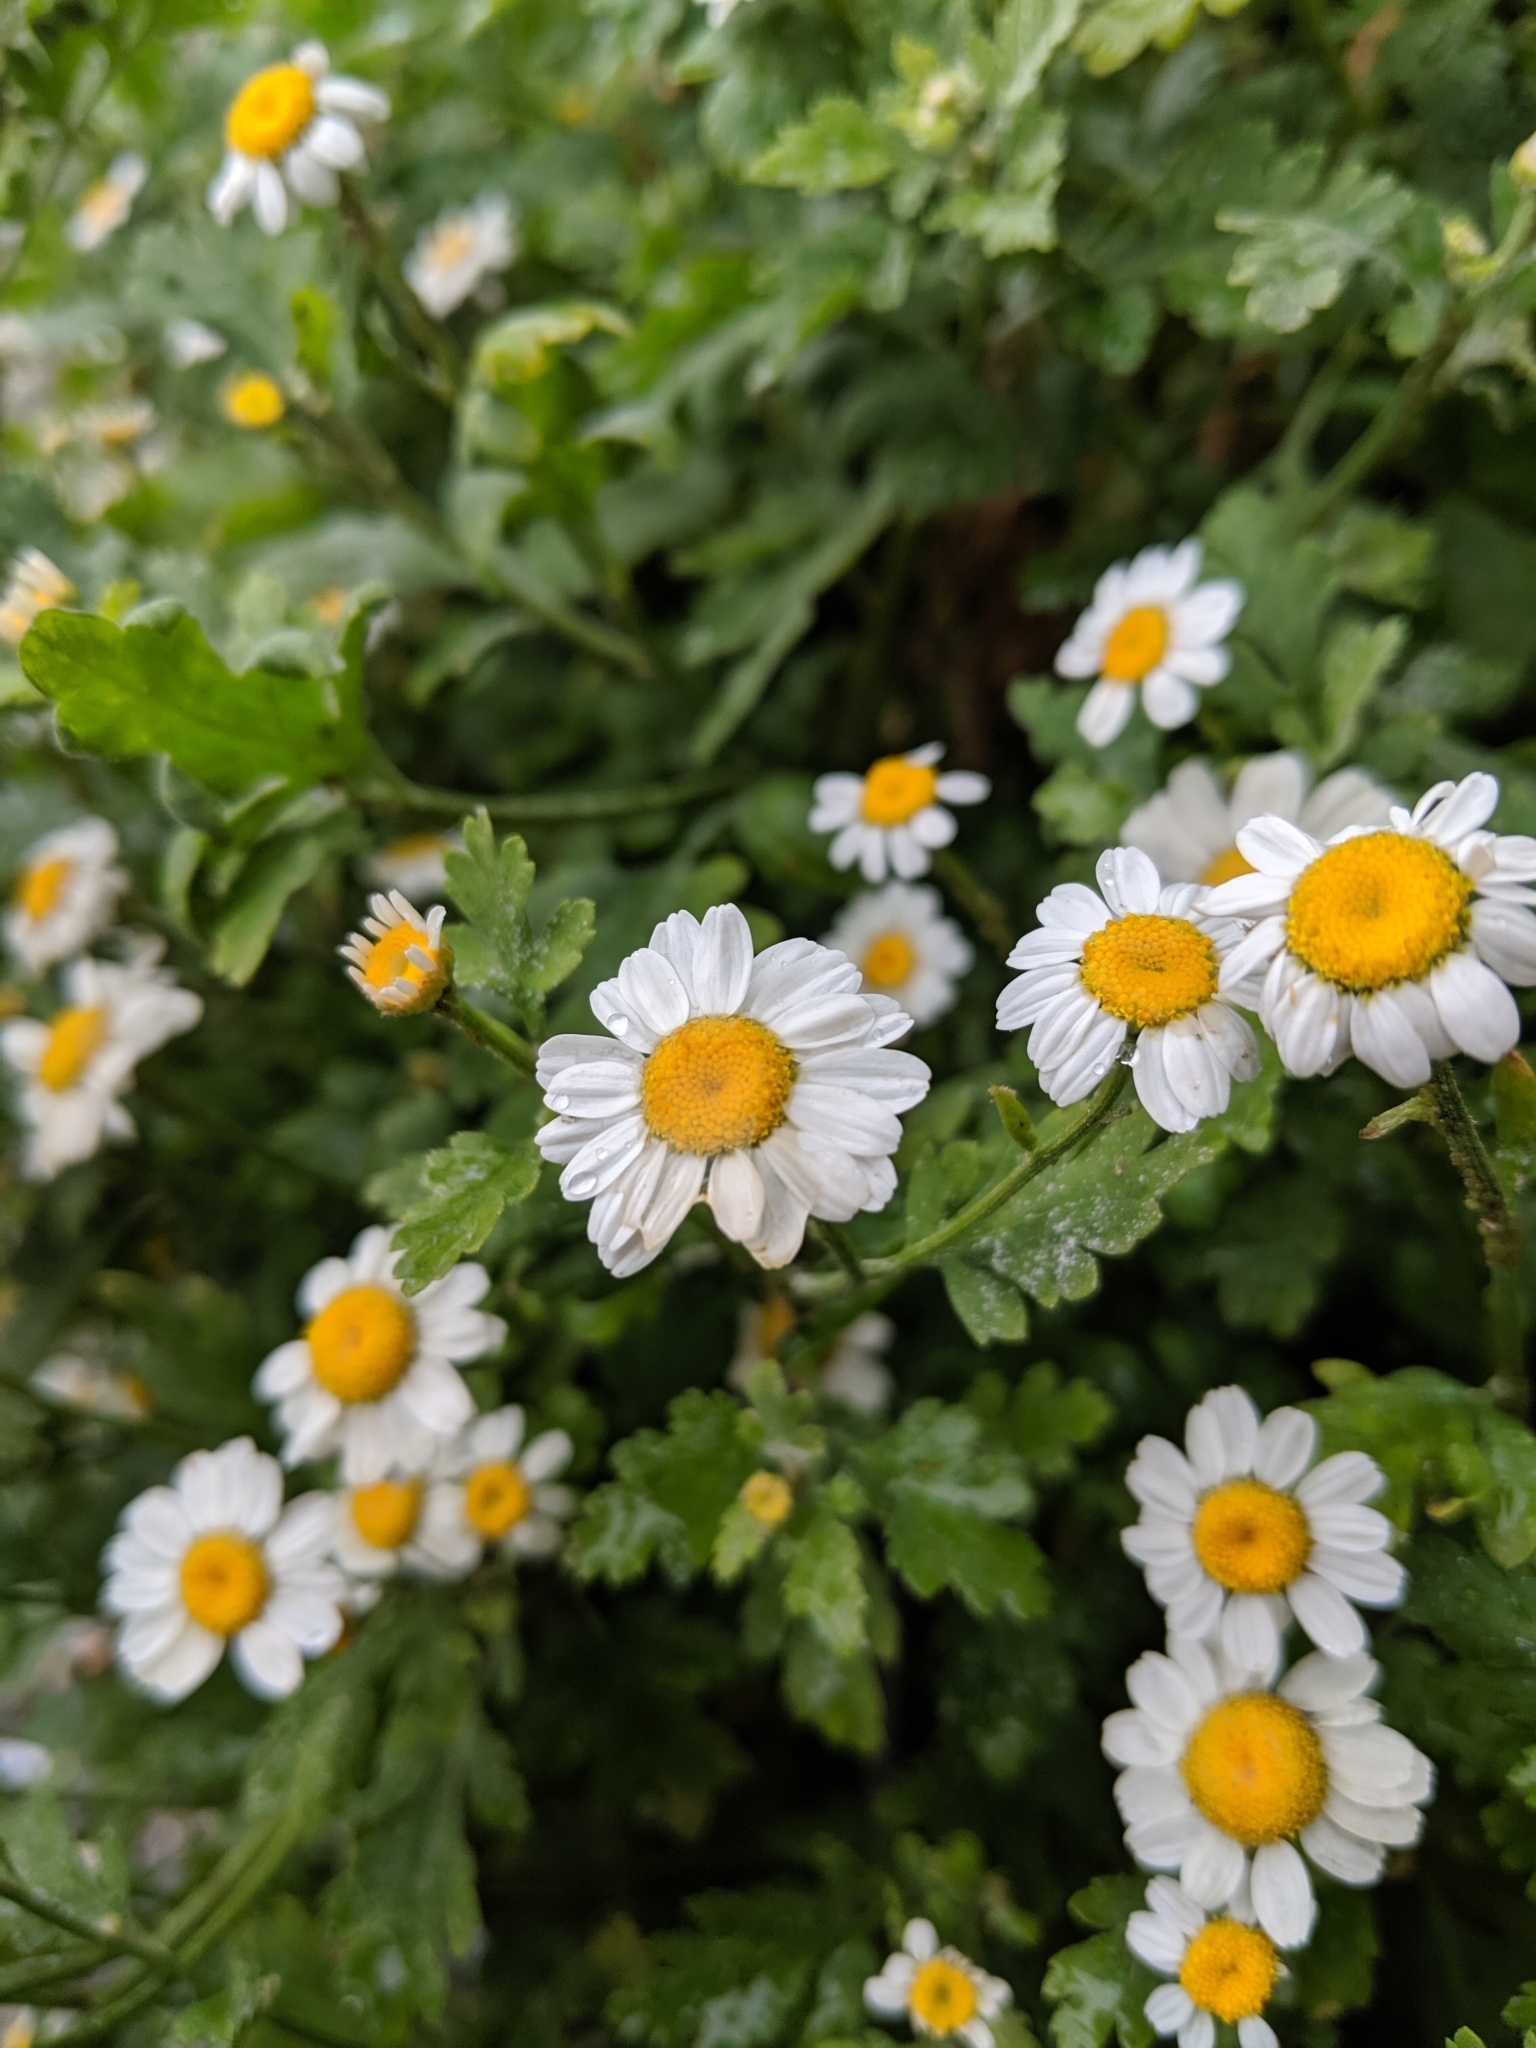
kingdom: Plantae
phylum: Tracheophyta
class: Magnoliopsida
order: Asterales
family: Asteraceae
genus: Tanacetum
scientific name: Tanacetum parthenium
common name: Feverfew
